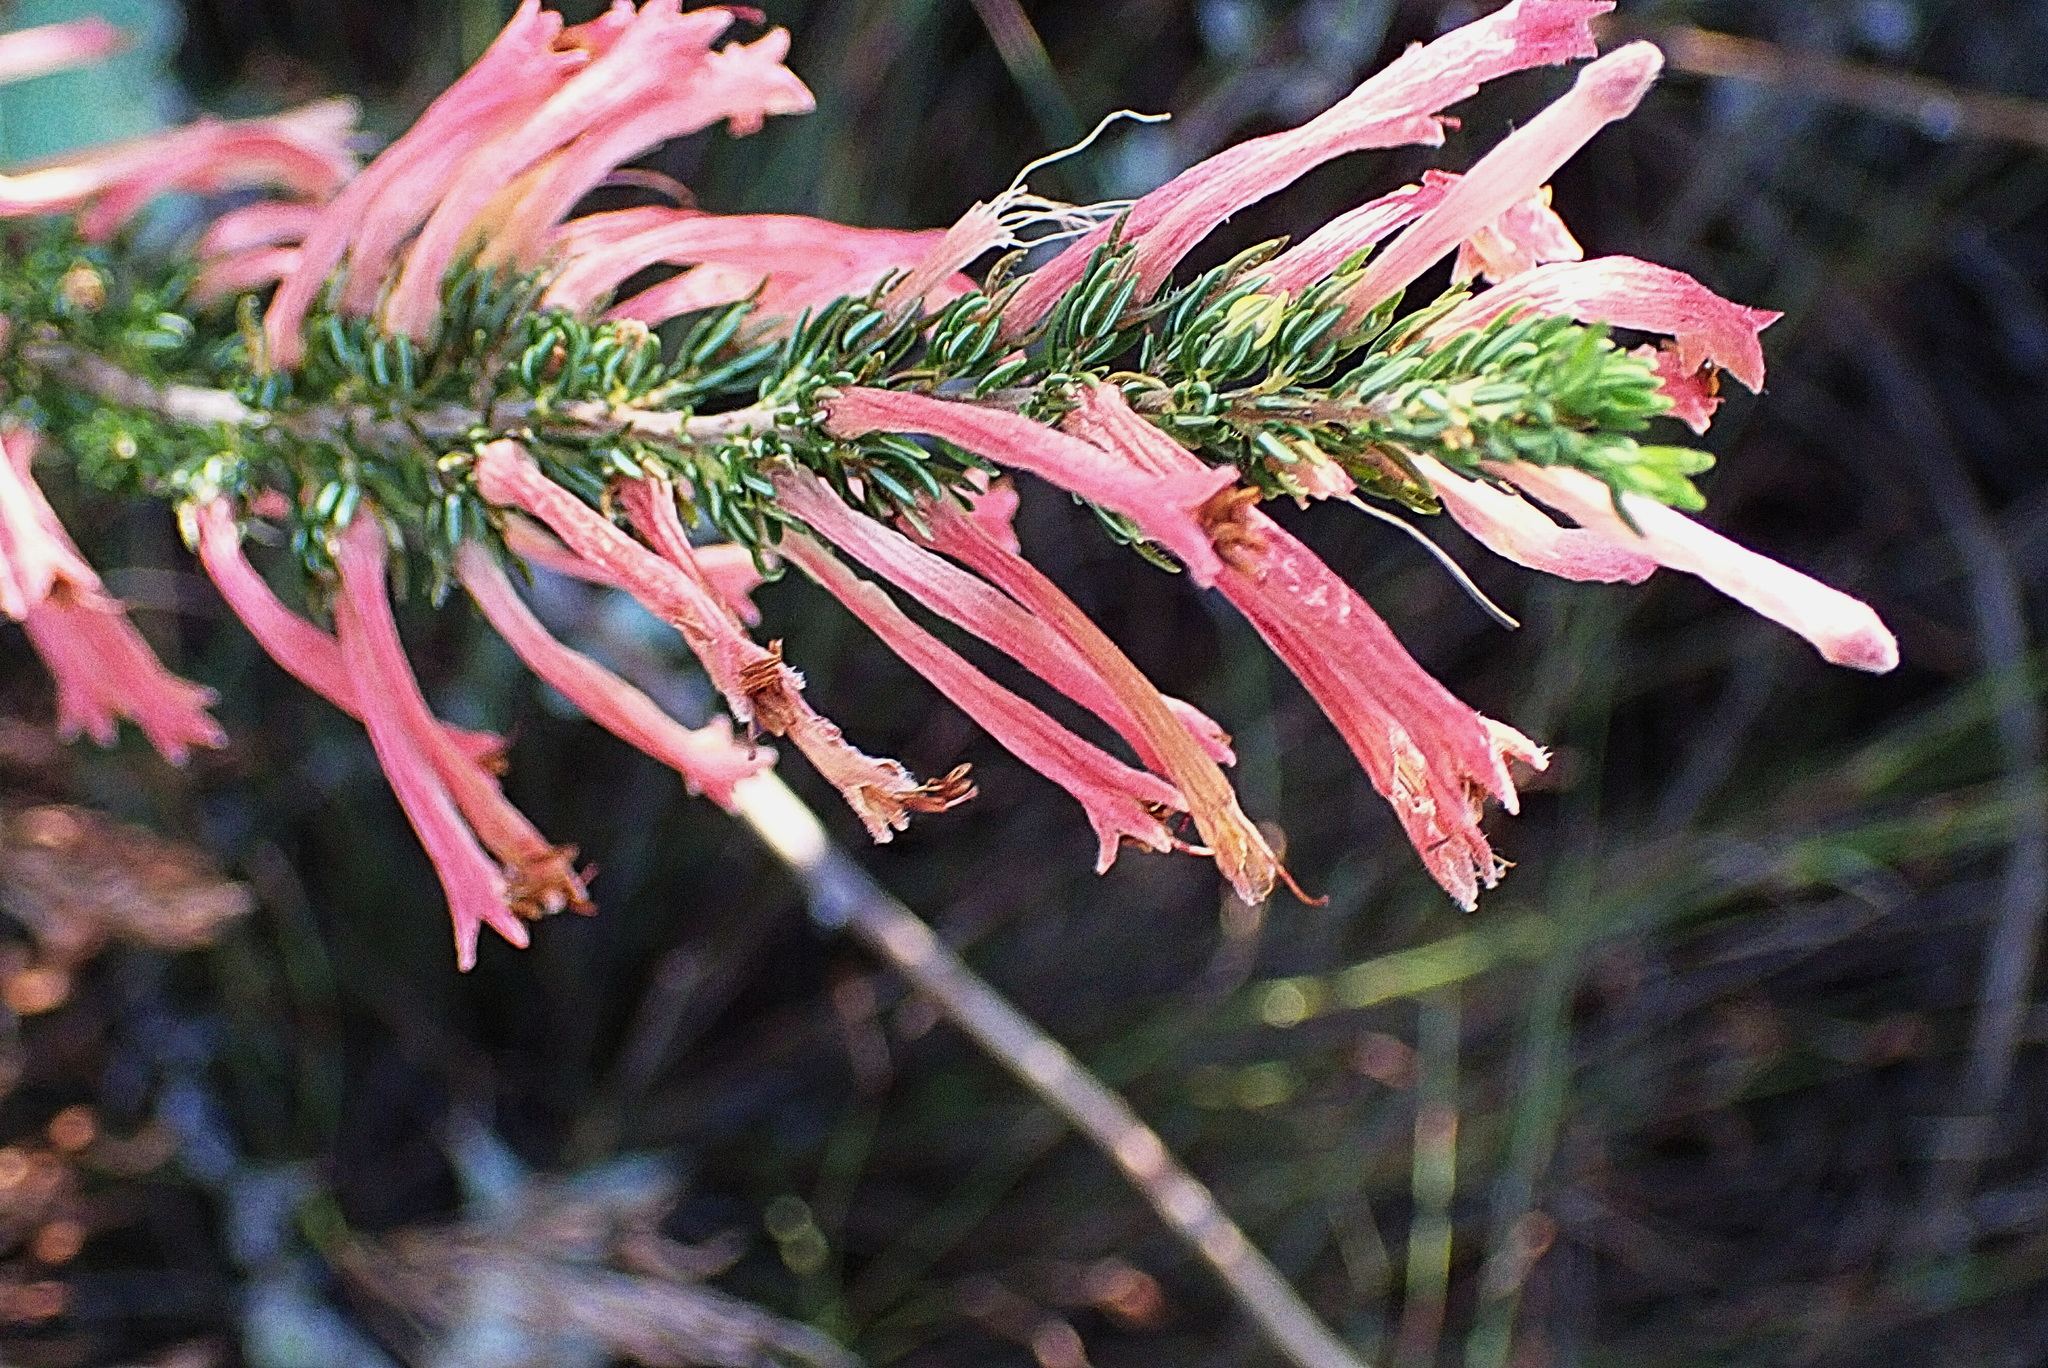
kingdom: Plantae
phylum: Tracheophyta
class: Magnoliopsida
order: Ericales
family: Ericaceae
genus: Erica
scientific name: Erica curviflora
